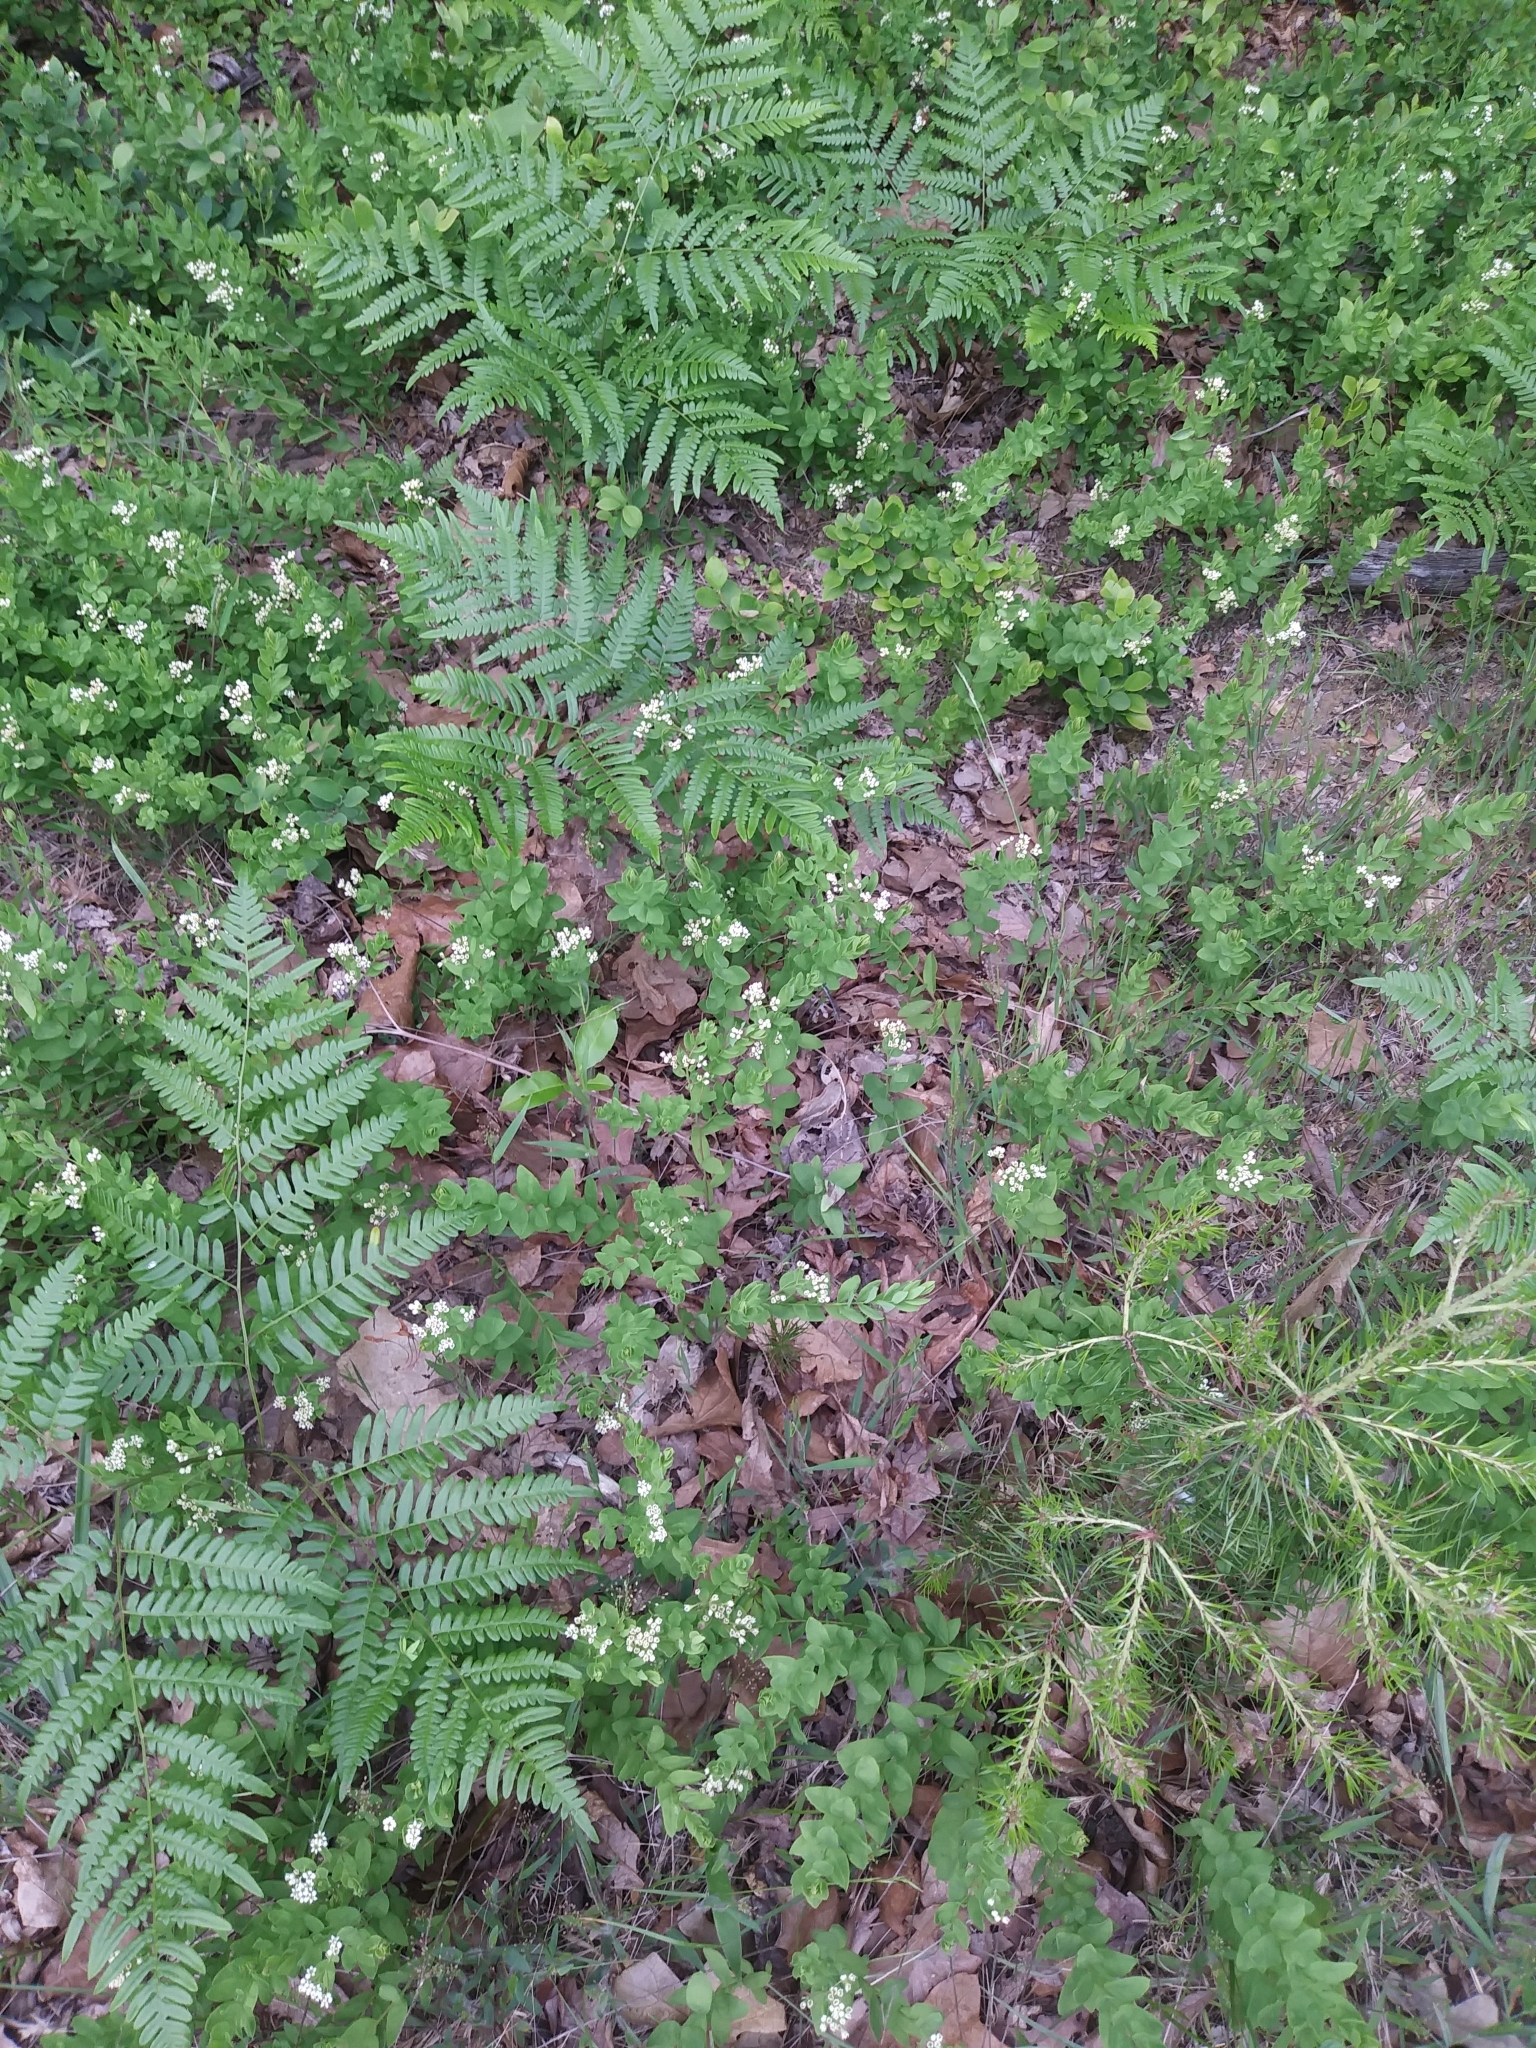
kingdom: Plantae
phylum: Tracheophyta
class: Magnoliopsida
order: Santalales
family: Comandraceae
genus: Comandra
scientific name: Comandra umbellata
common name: Bastard toadflax
